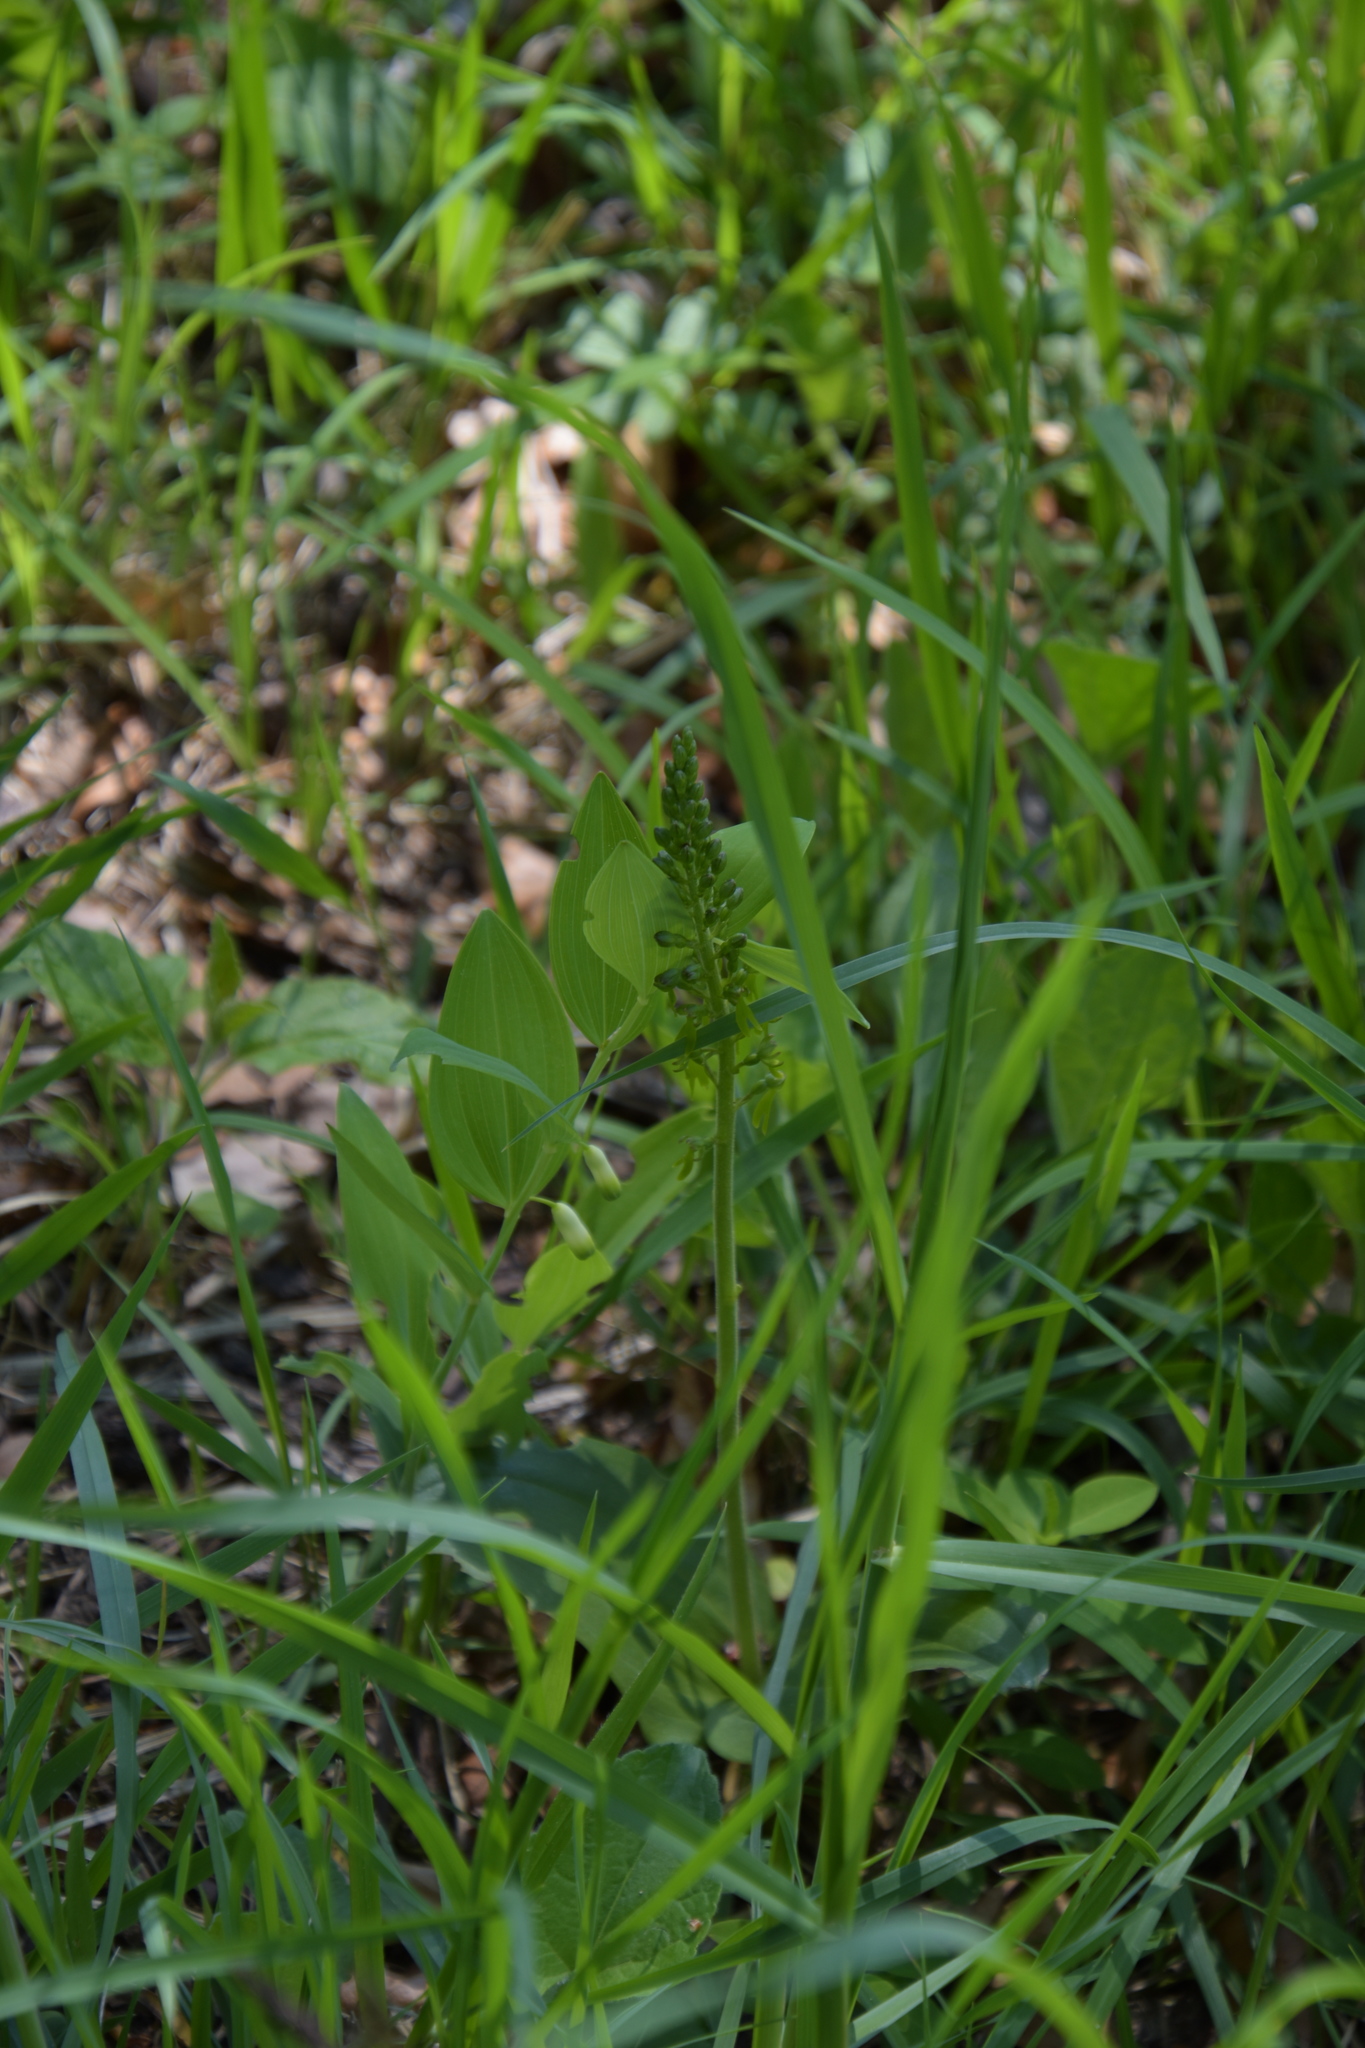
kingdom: Plantae
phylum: Tracheophyta
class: Liliopsida
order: Asparagales
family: Orchidaceae
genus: Neottia
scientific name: Neottia ovata
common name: Common twayblade
